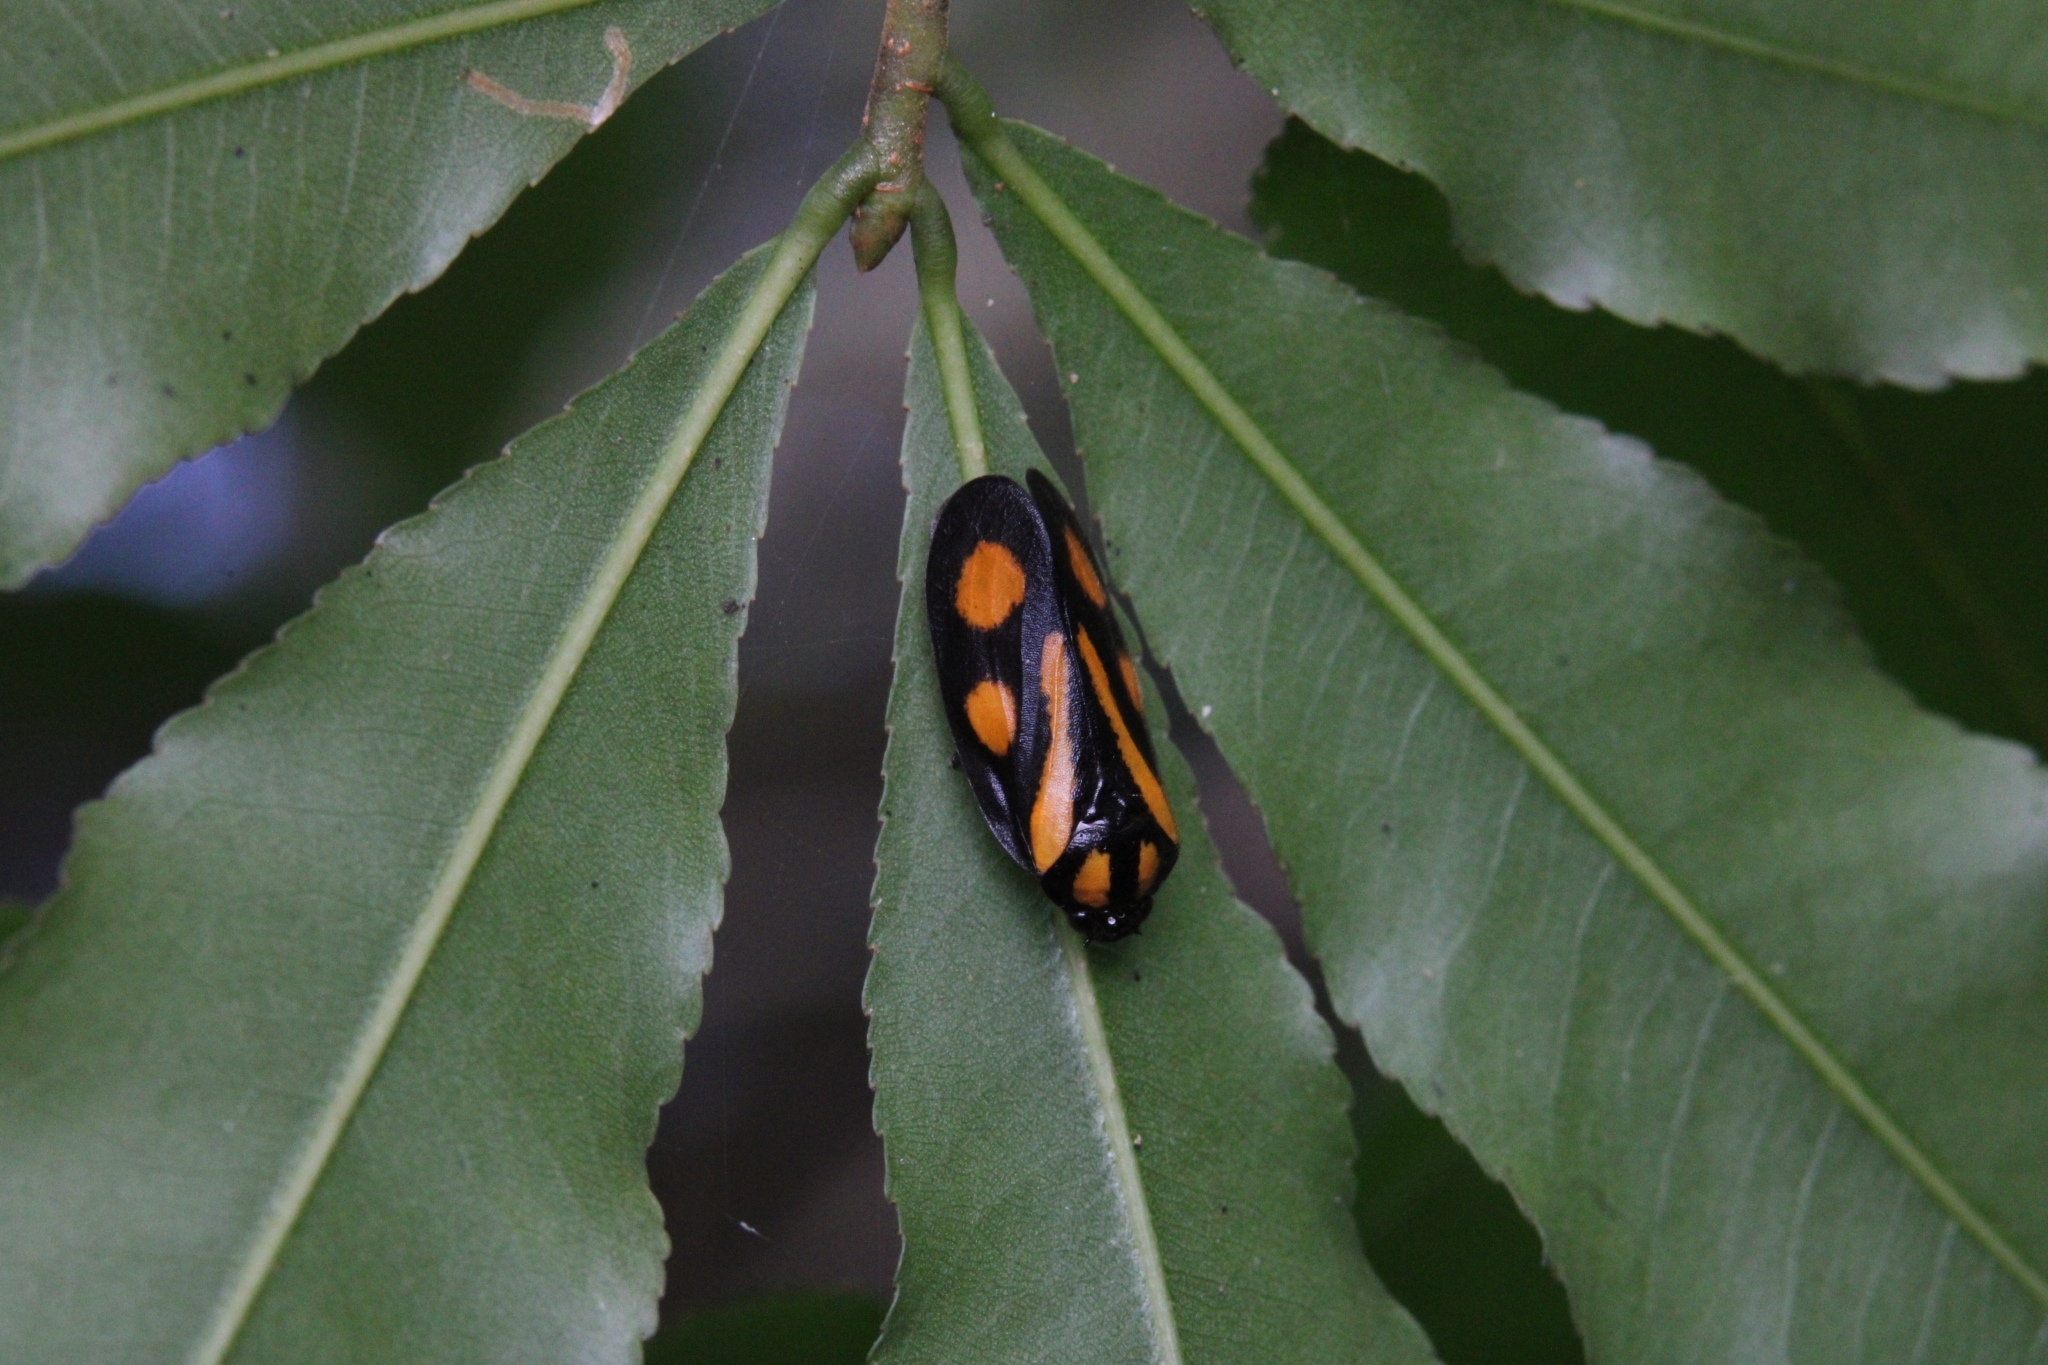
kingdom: Animalia
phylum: Arthropoda
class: Insecta
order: Hemiptera
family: Cercopidae
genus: Hemitriecphora
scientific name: Hemitriecphora variabilis
